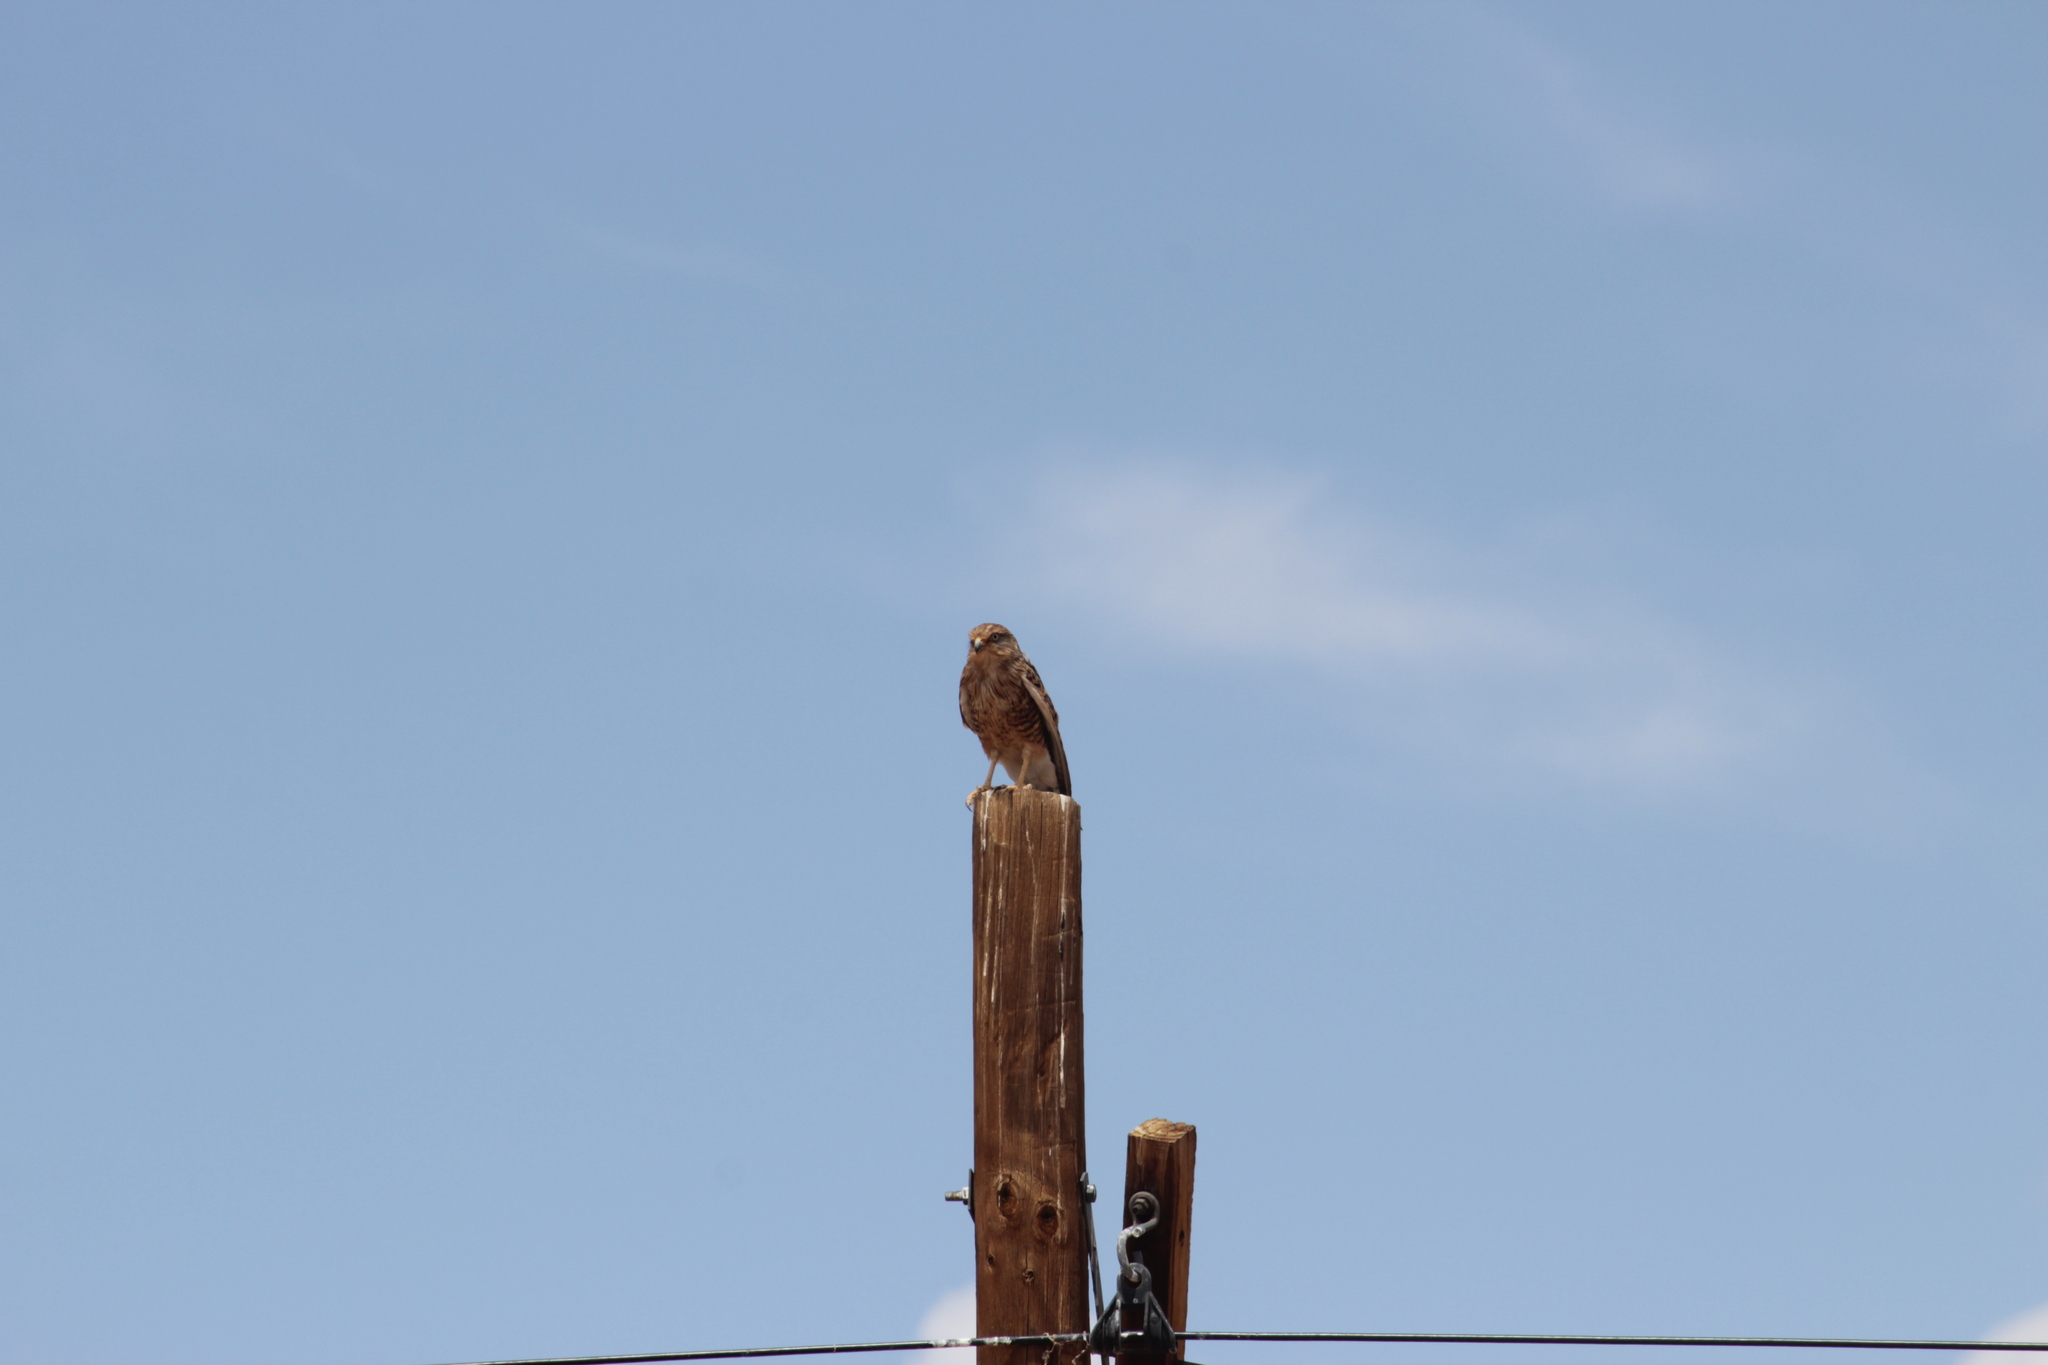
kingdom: Animalia
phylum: Chordata
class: Aves
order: Falconiformes
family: Falconidae
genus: Falco
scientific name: Falco rupicoloides
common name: Greater kestrel
